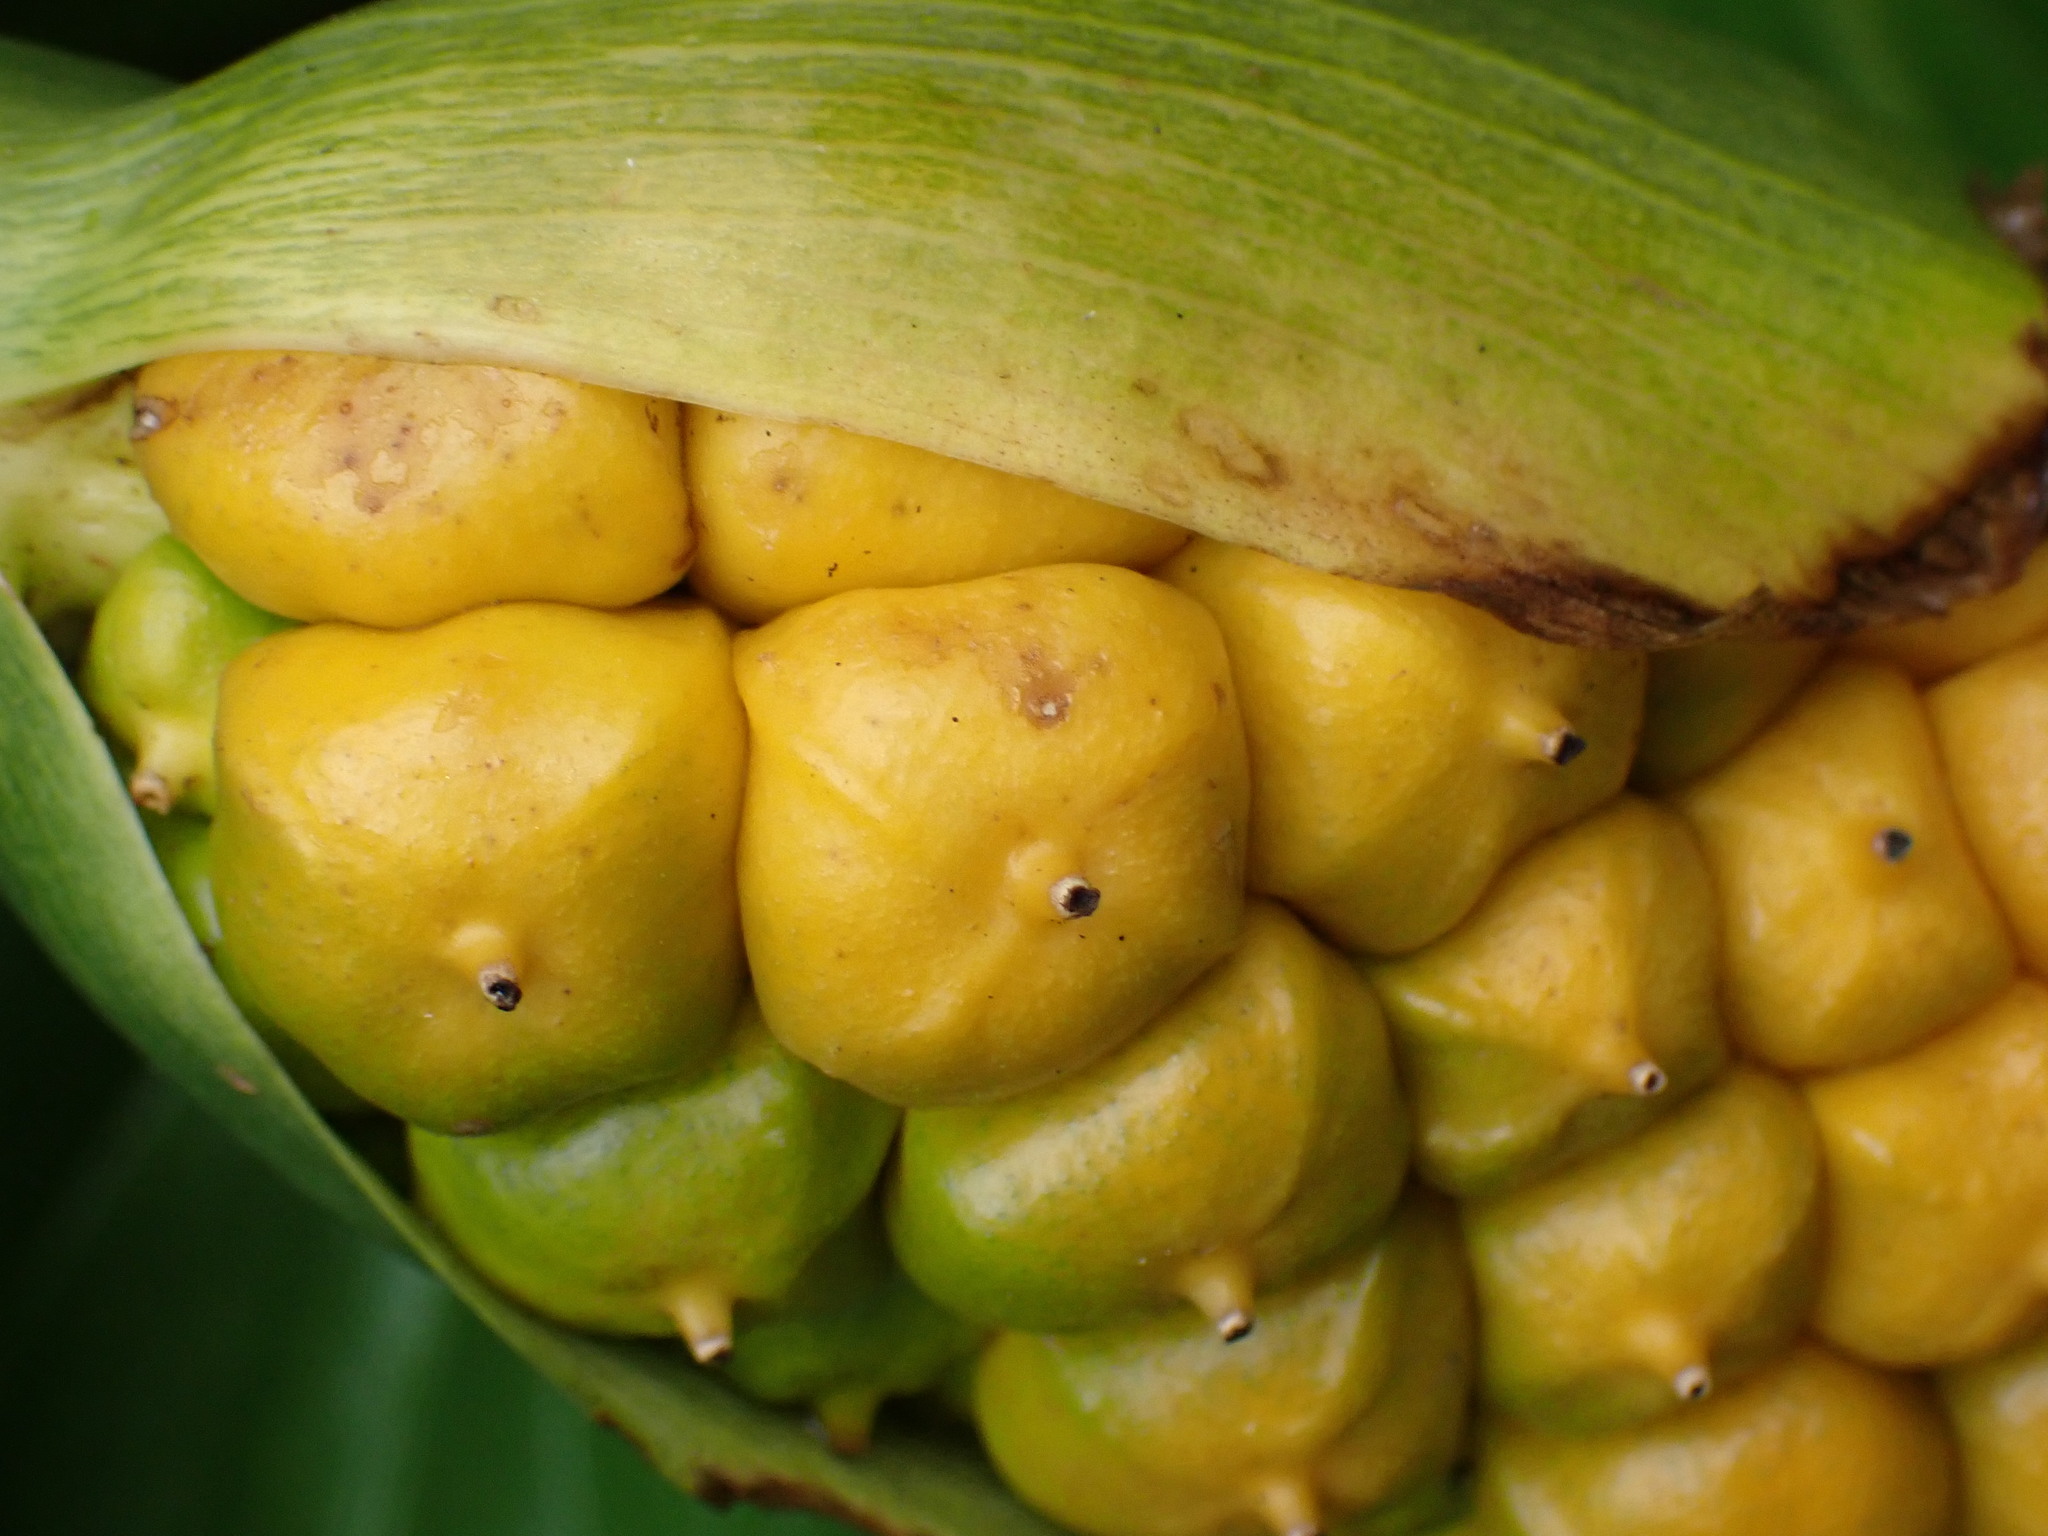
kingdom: Plantae
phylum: Tracheophyta
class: Liliopsida
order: Alismatales
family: Araceae
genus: Zantedeschia
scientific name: Zantedeschia aethiopica
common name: Altar-lily
